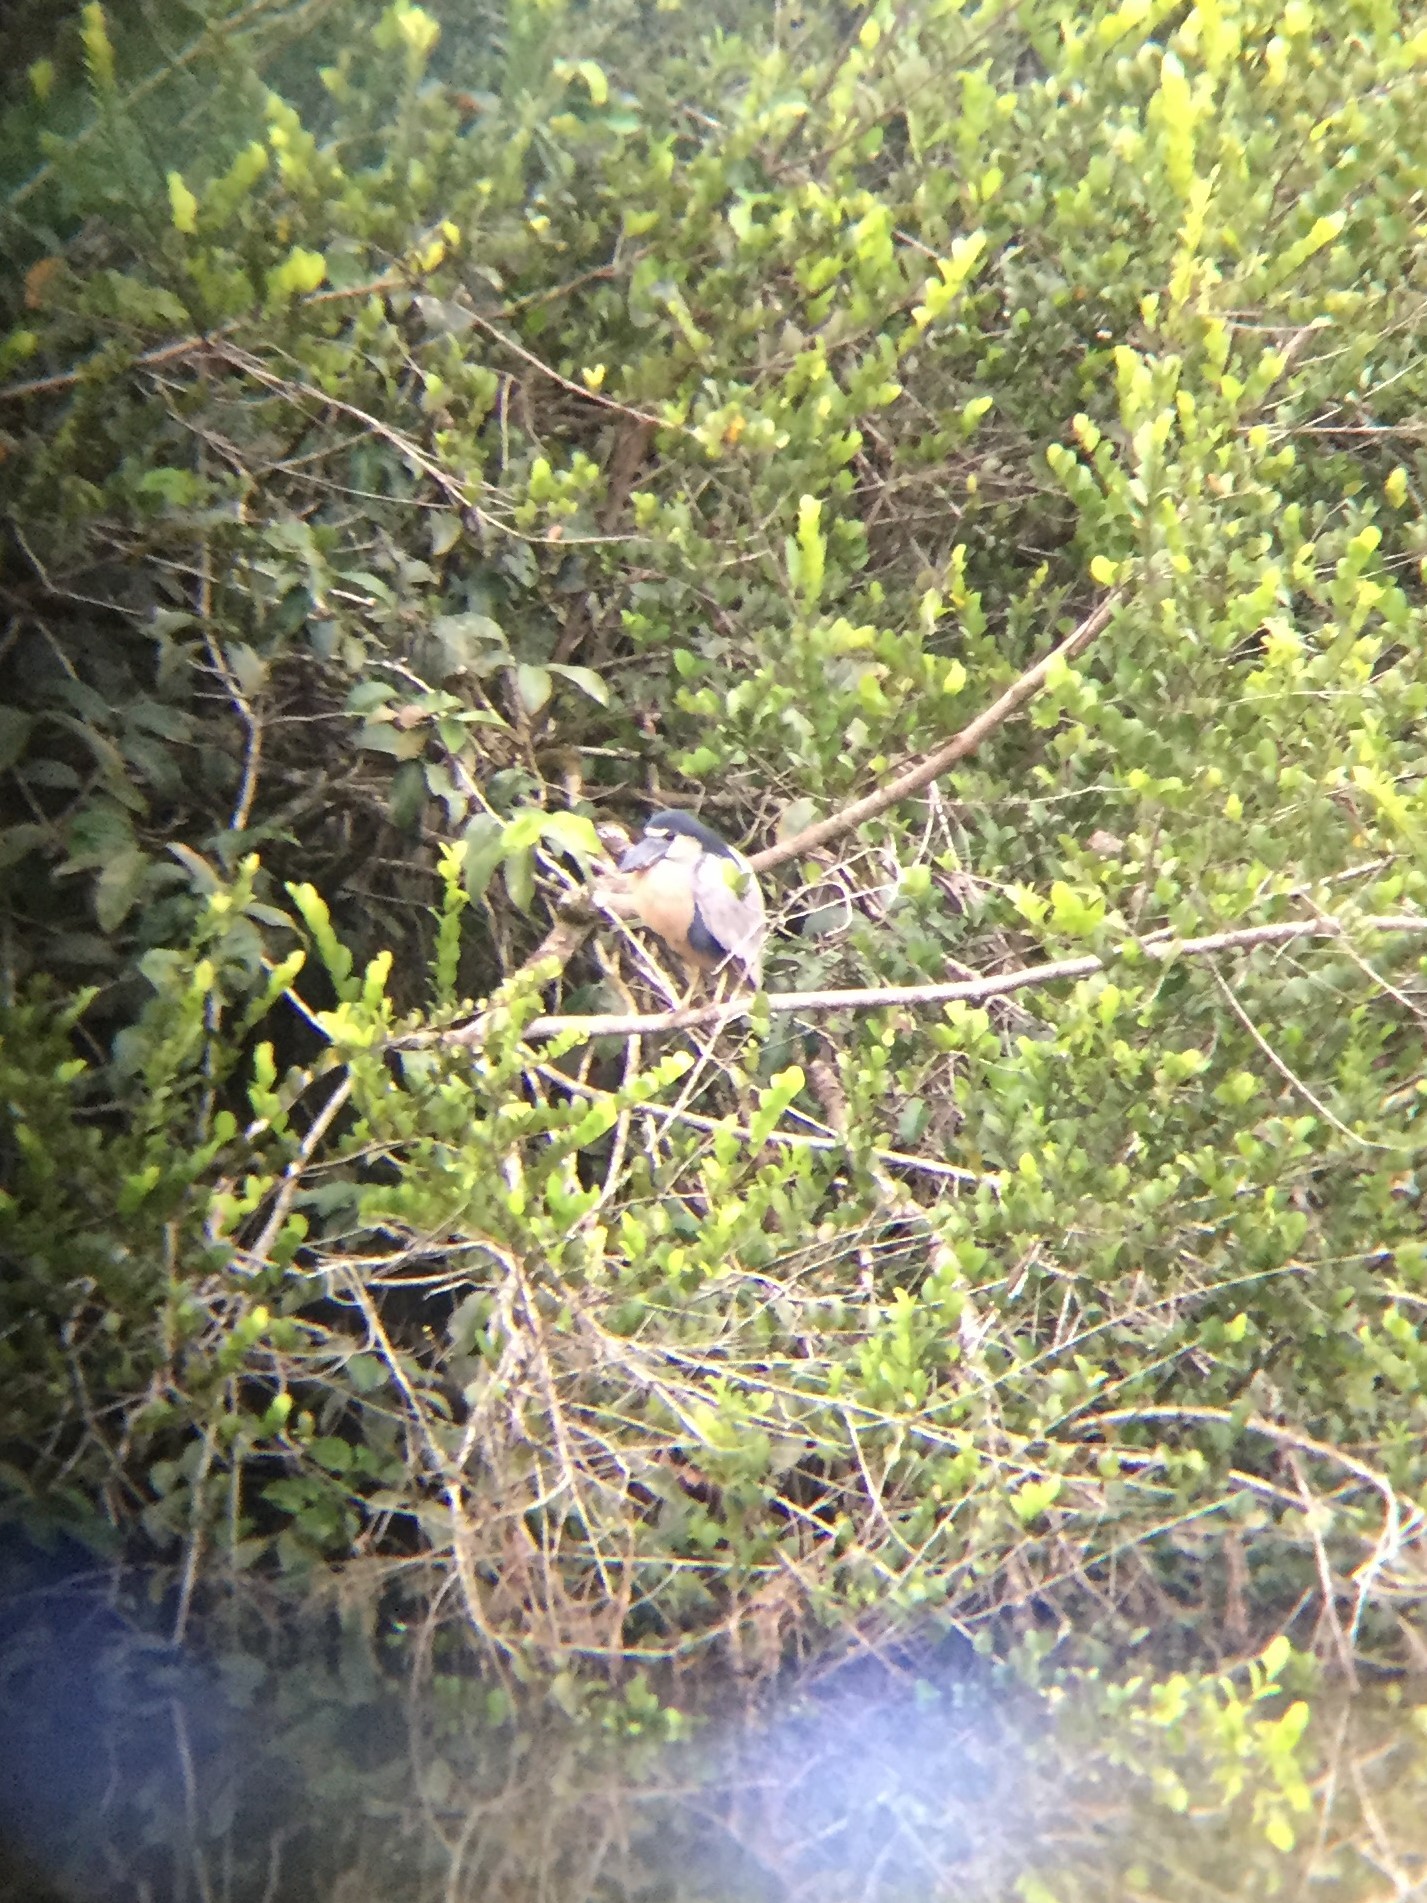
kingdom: Animalia
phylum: Chordata
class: Aves
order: Pelecaniformes
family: Ardeidae
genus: Cochlearius
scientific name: Cochlearius cochlearius
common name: Boat-billed heron
